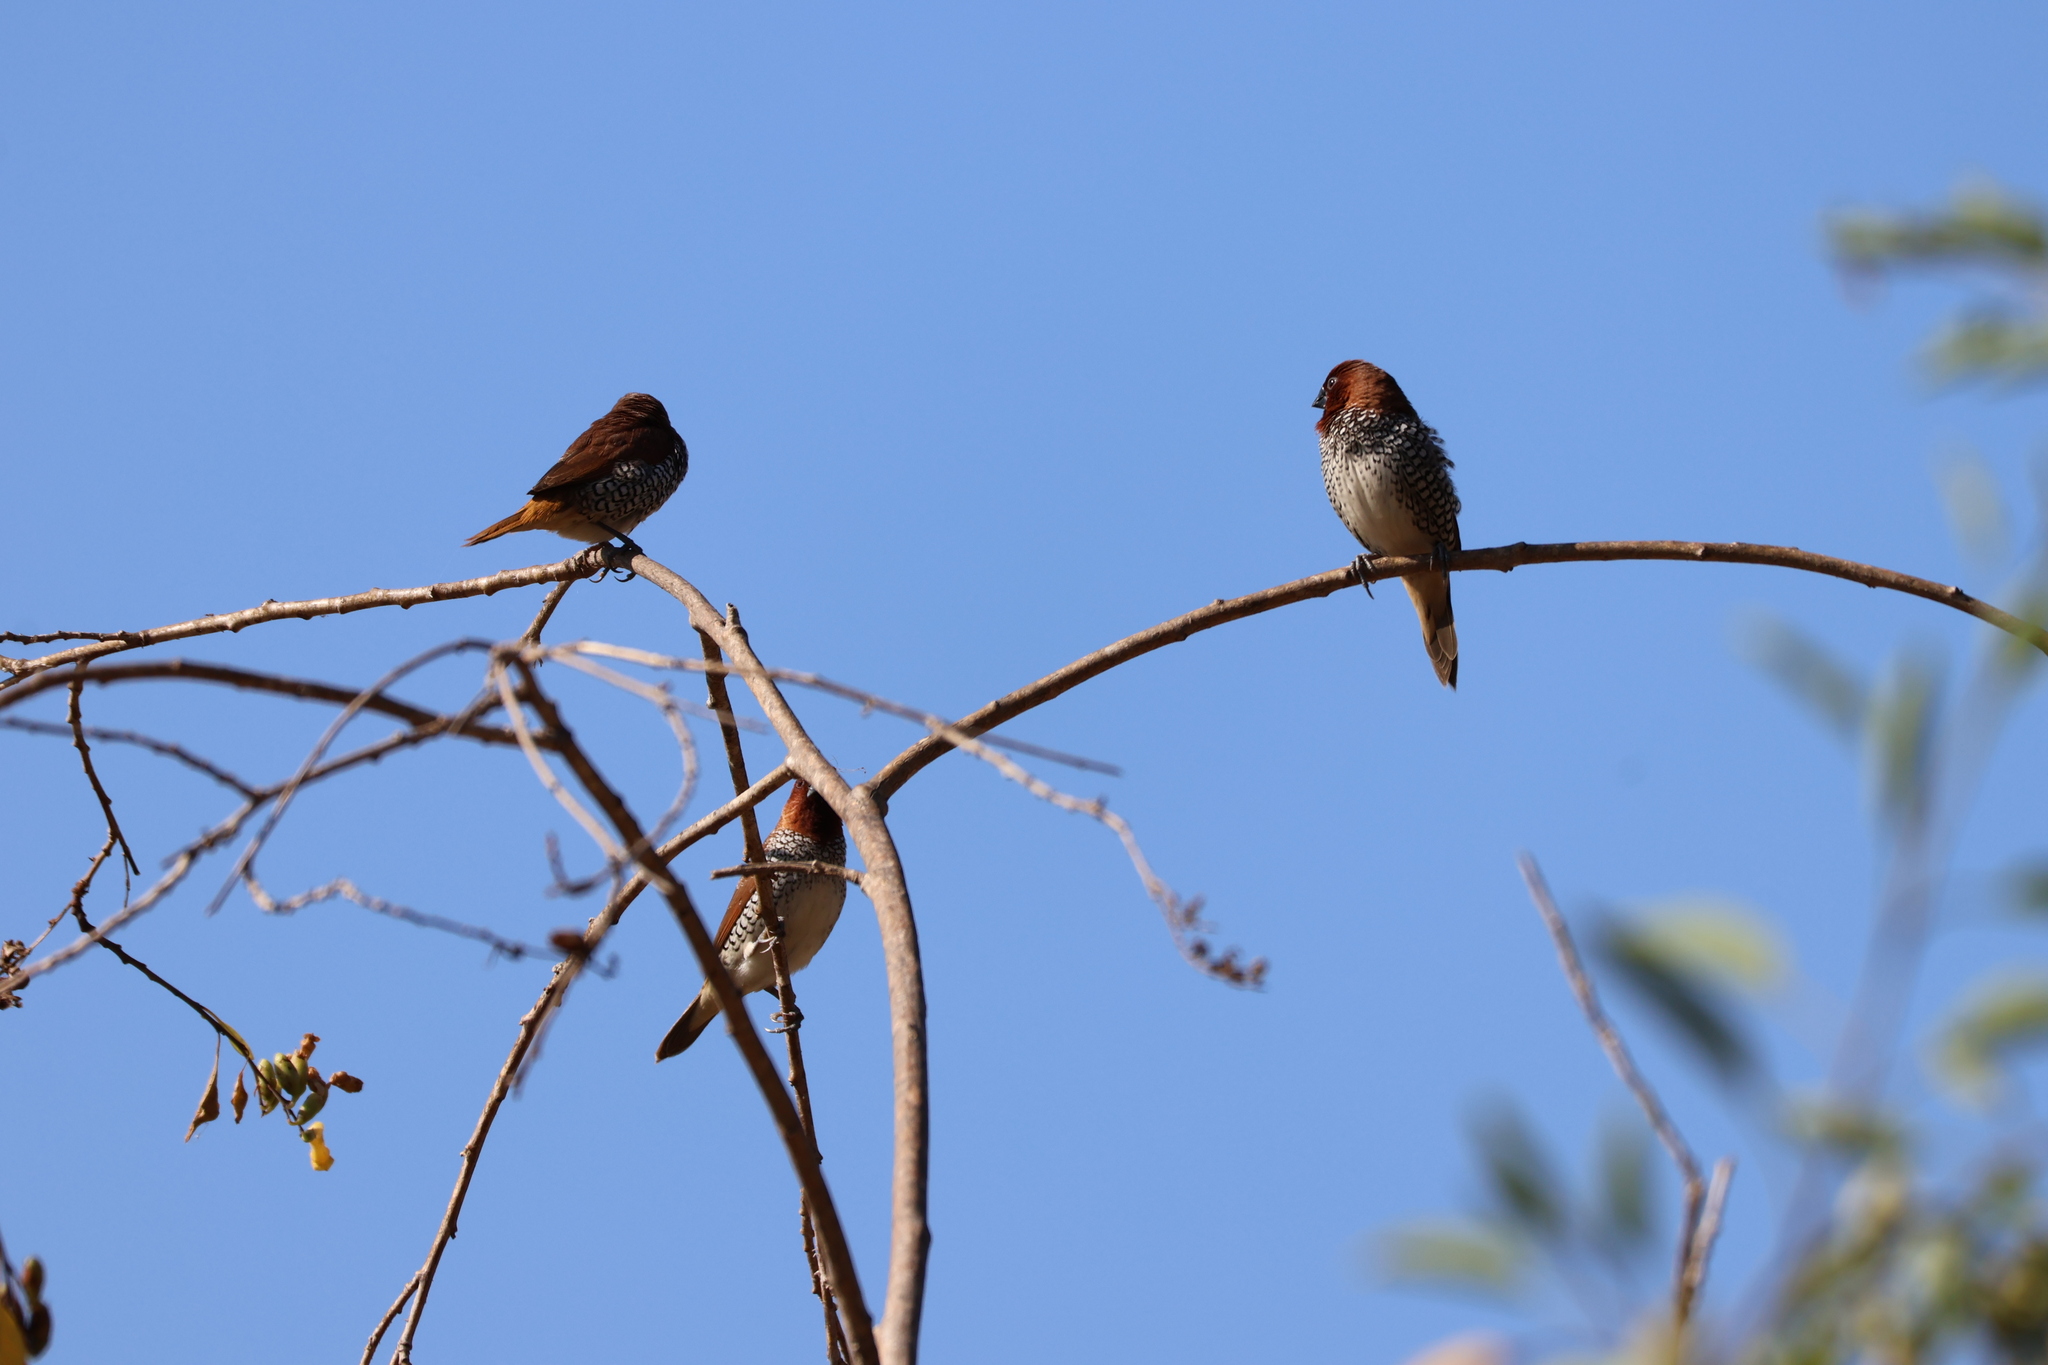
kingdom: Animalia
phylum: Chordata
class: Aves
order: Passeriformes
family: Estrildidae
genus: Lonchura
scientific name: Lonchura punctulata
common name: Scaly-breasted munia
